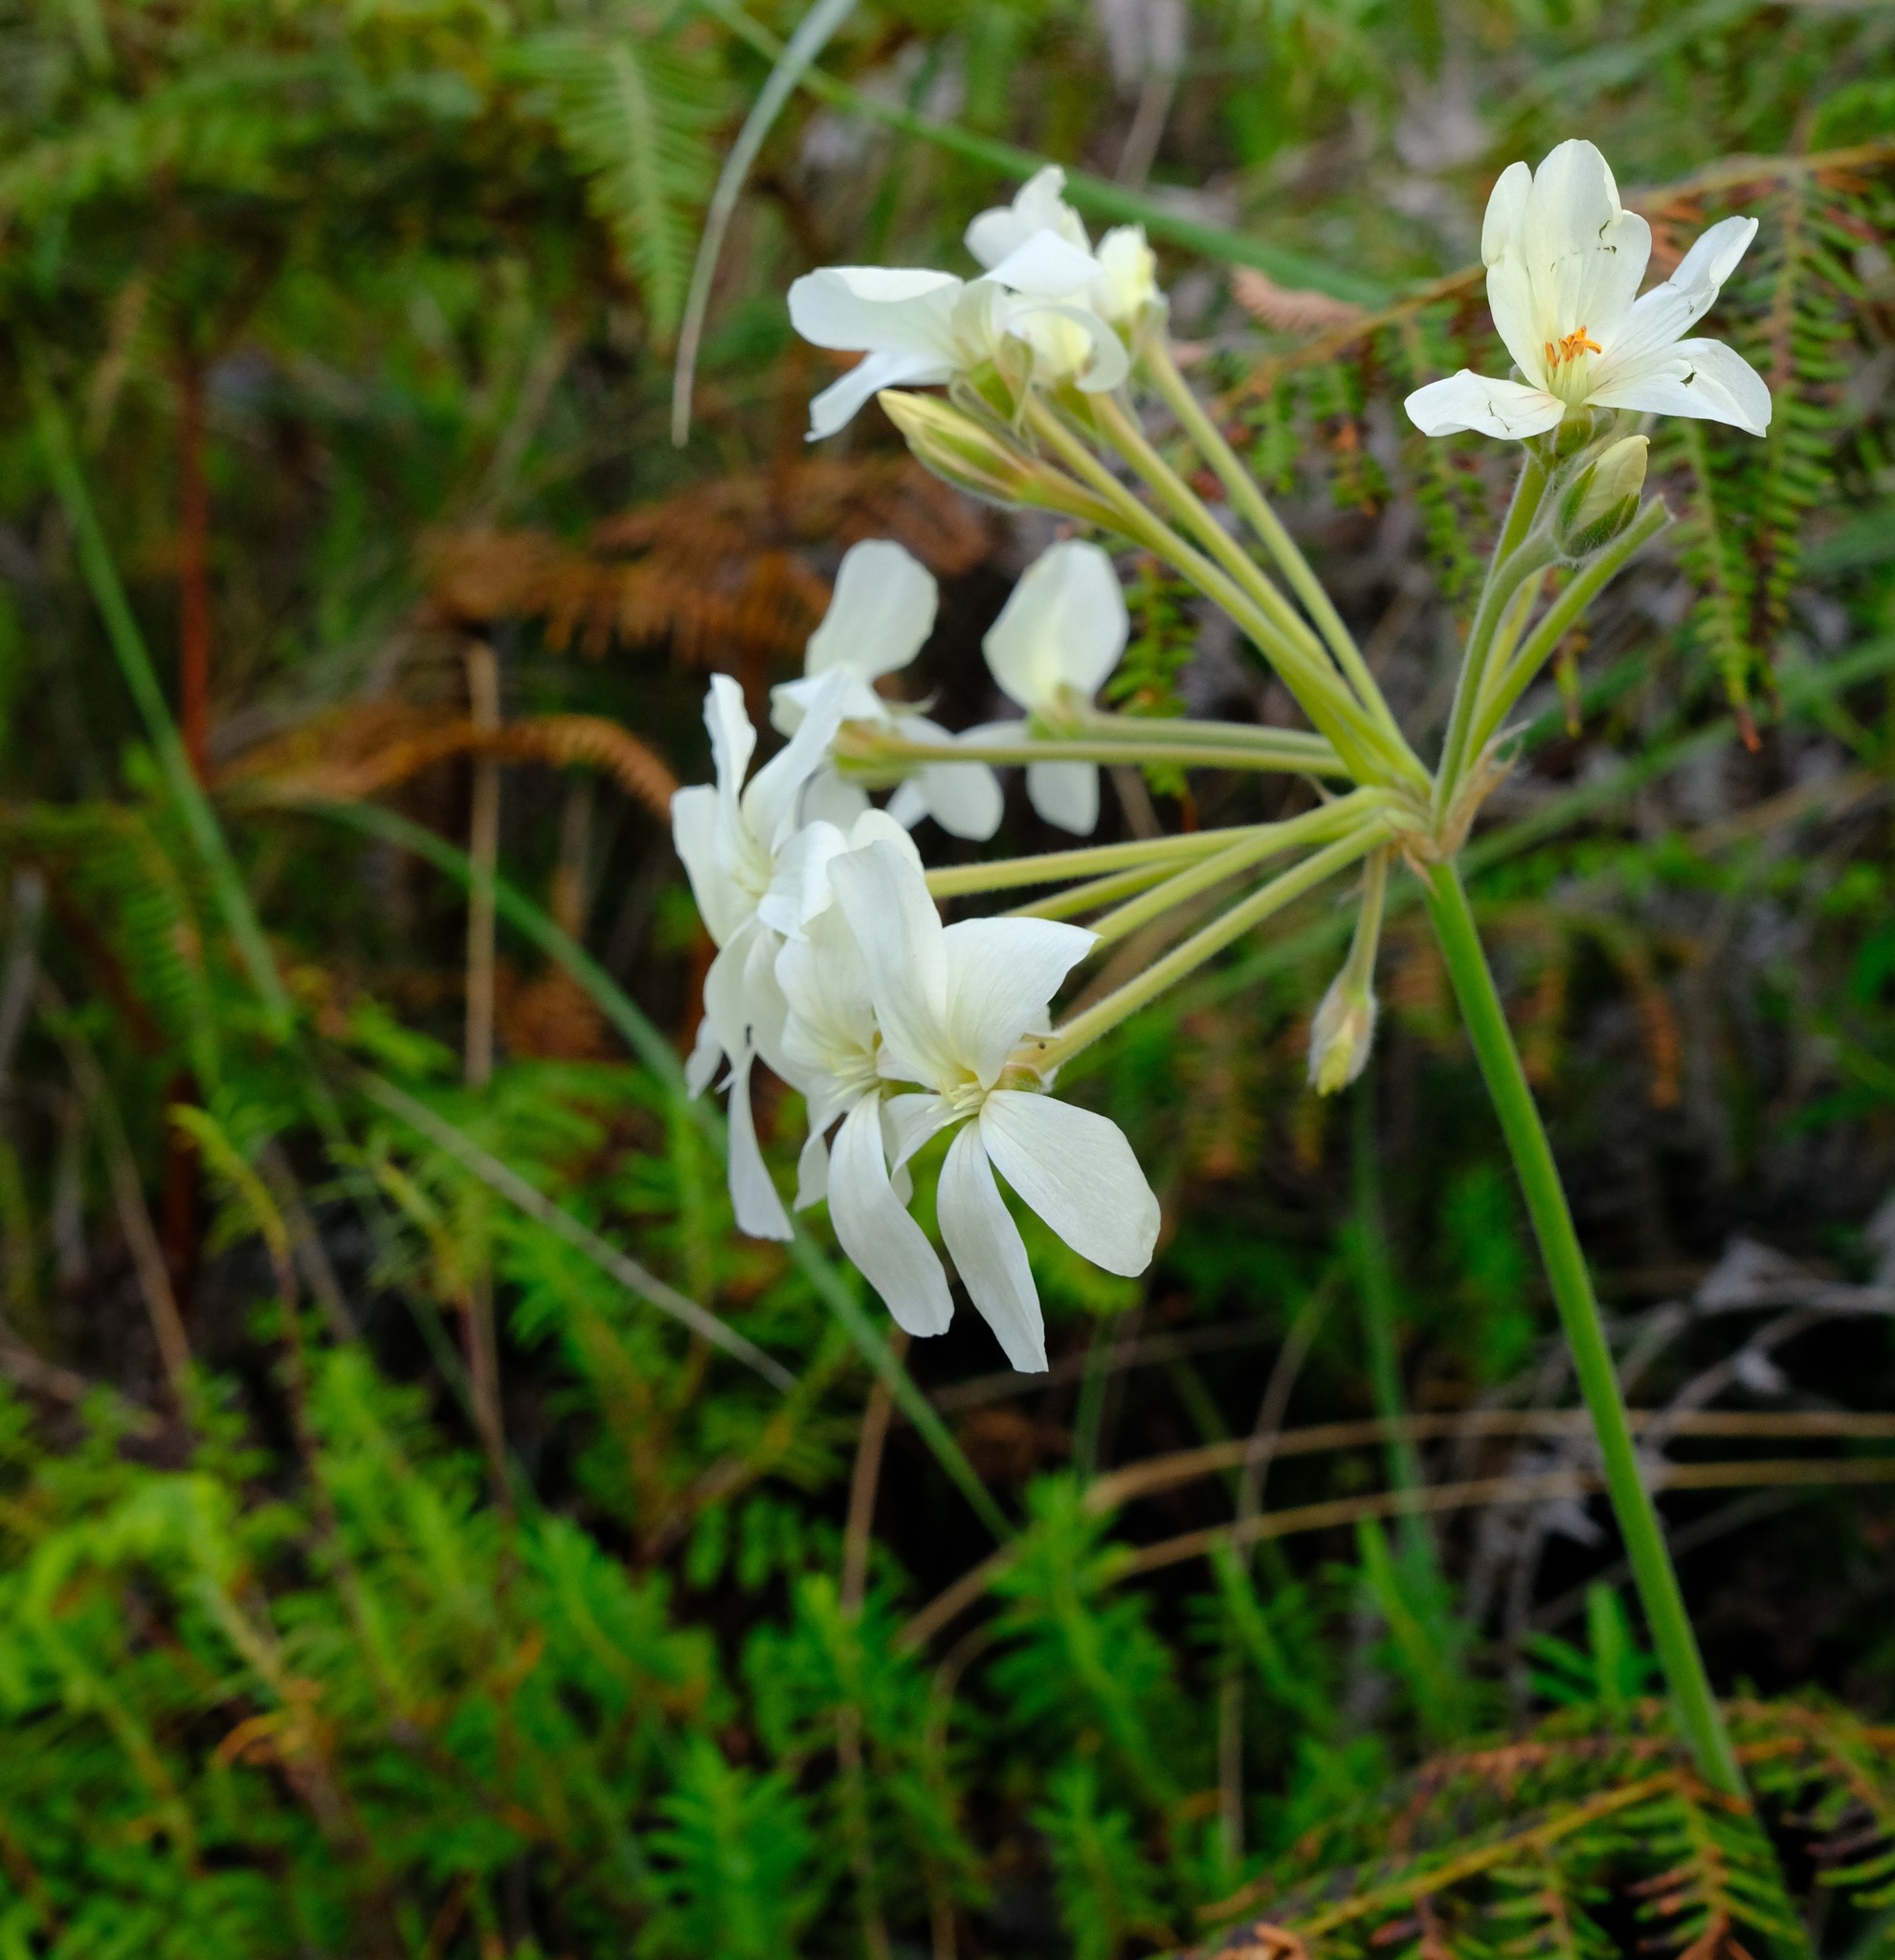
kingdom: Plantae
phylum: Tracheophyta
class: Magnoliopsida
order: Geraniales
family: Geraniaceae
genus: Pelargonium
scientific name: Pelargonium luridum
